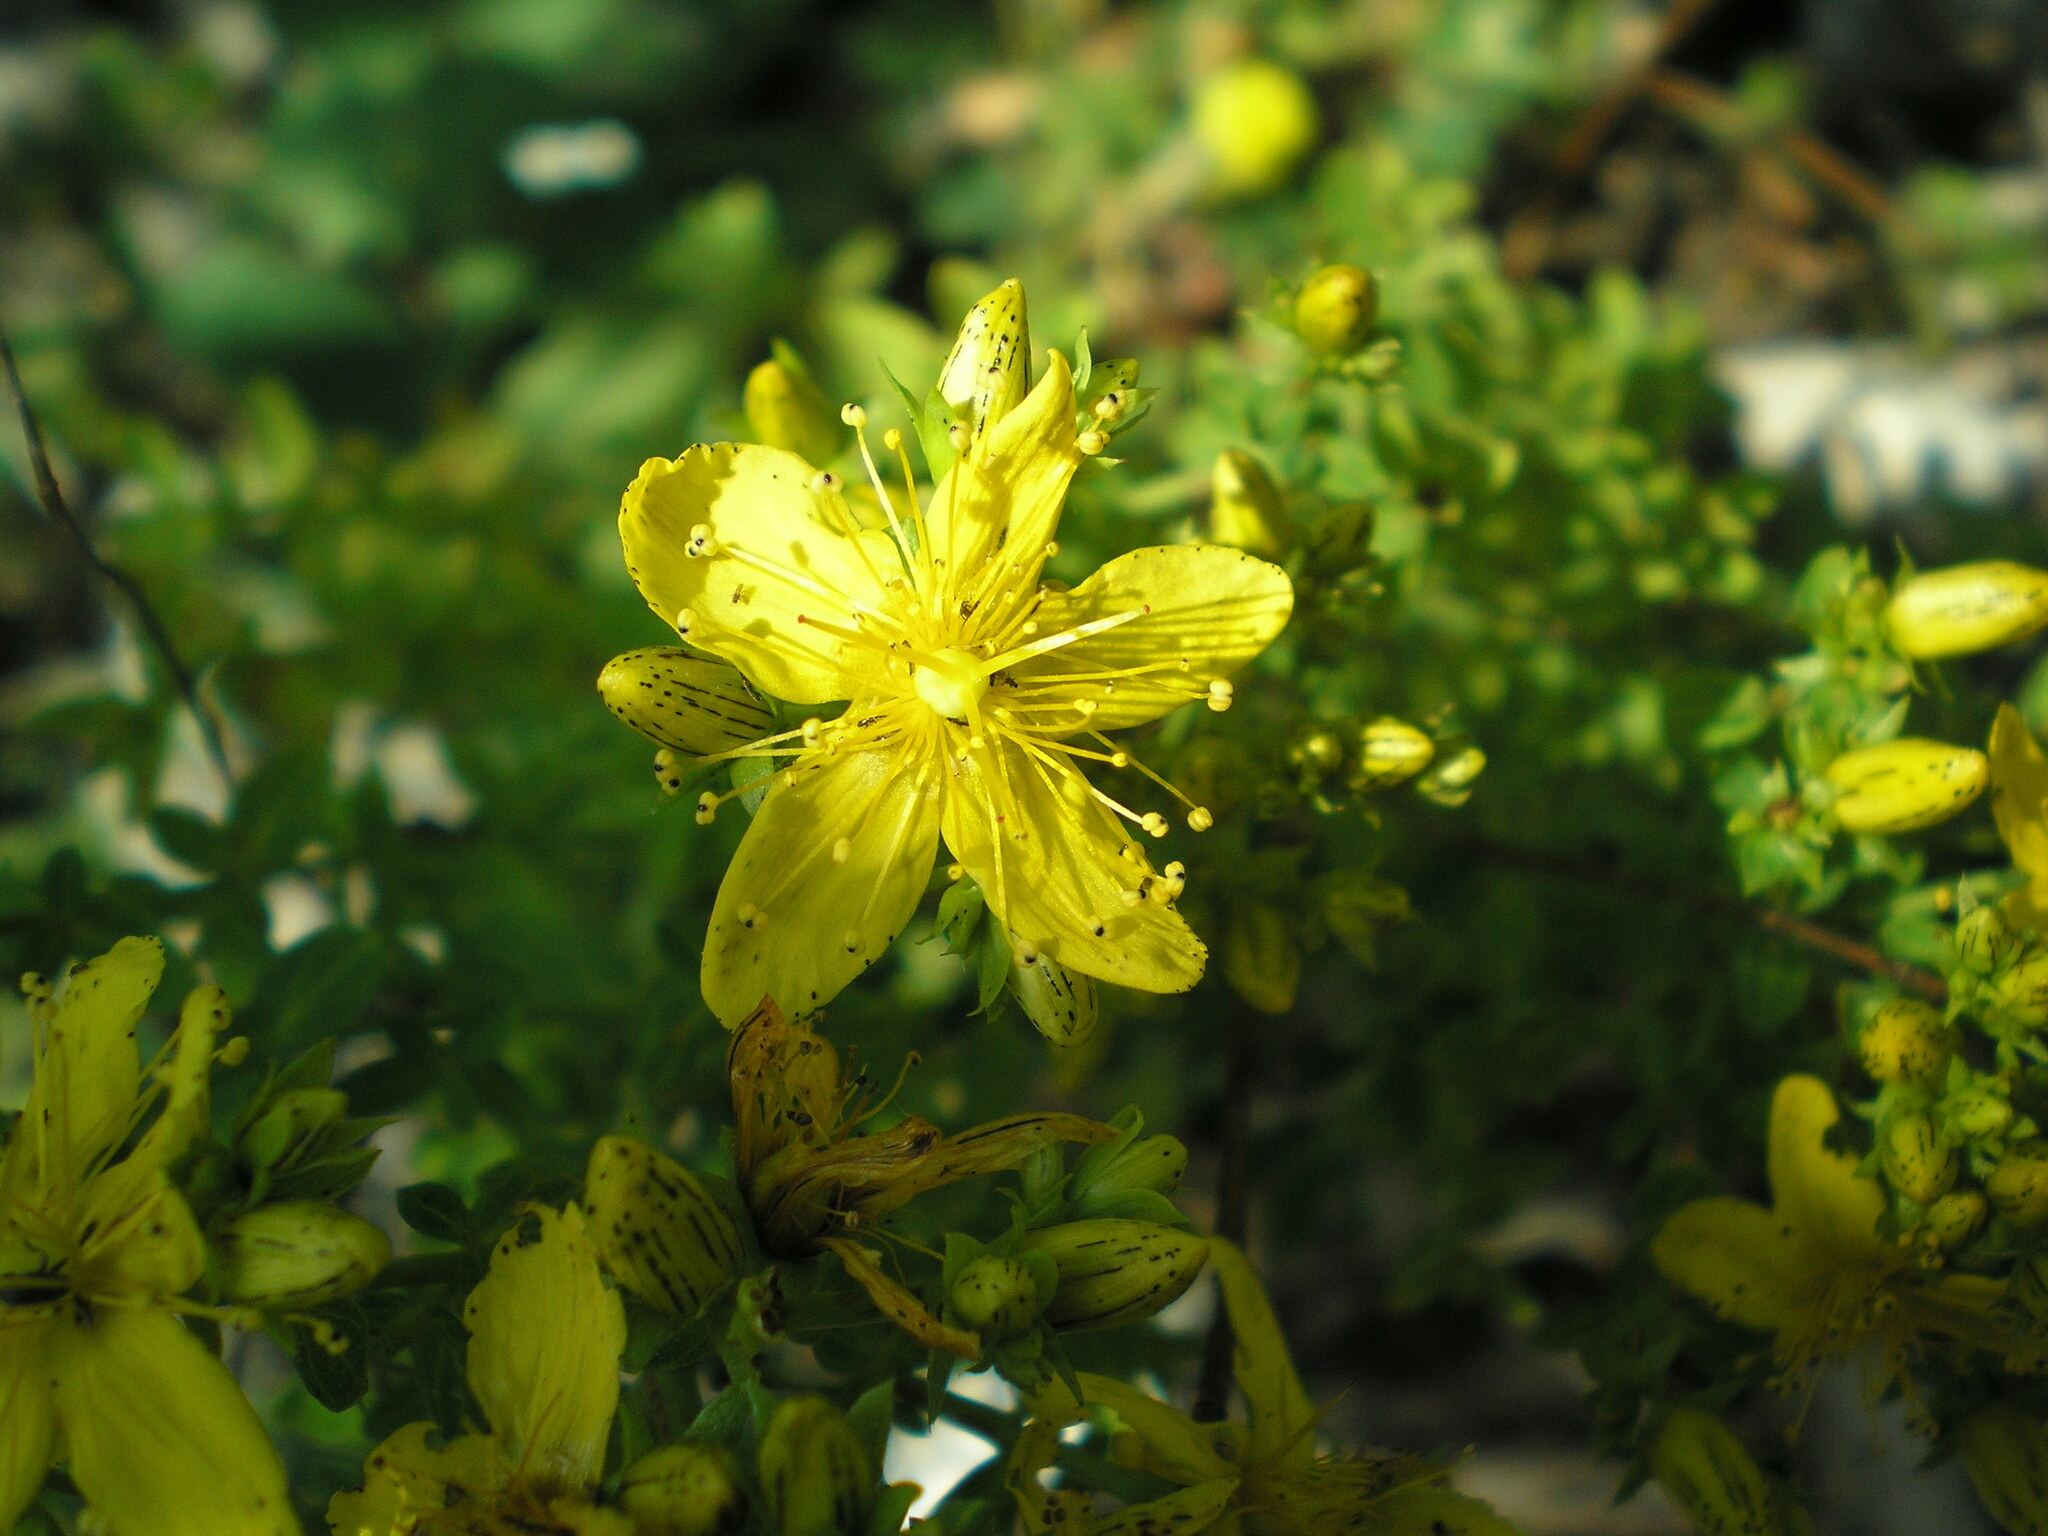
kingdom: Plantae
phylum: Tracheophyta
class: Magnoliopsida
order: Malpighiales
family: Hypericaceae
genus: Hypericum
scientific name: Hypericum maculatum
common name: Imperforate st. john's-wort
